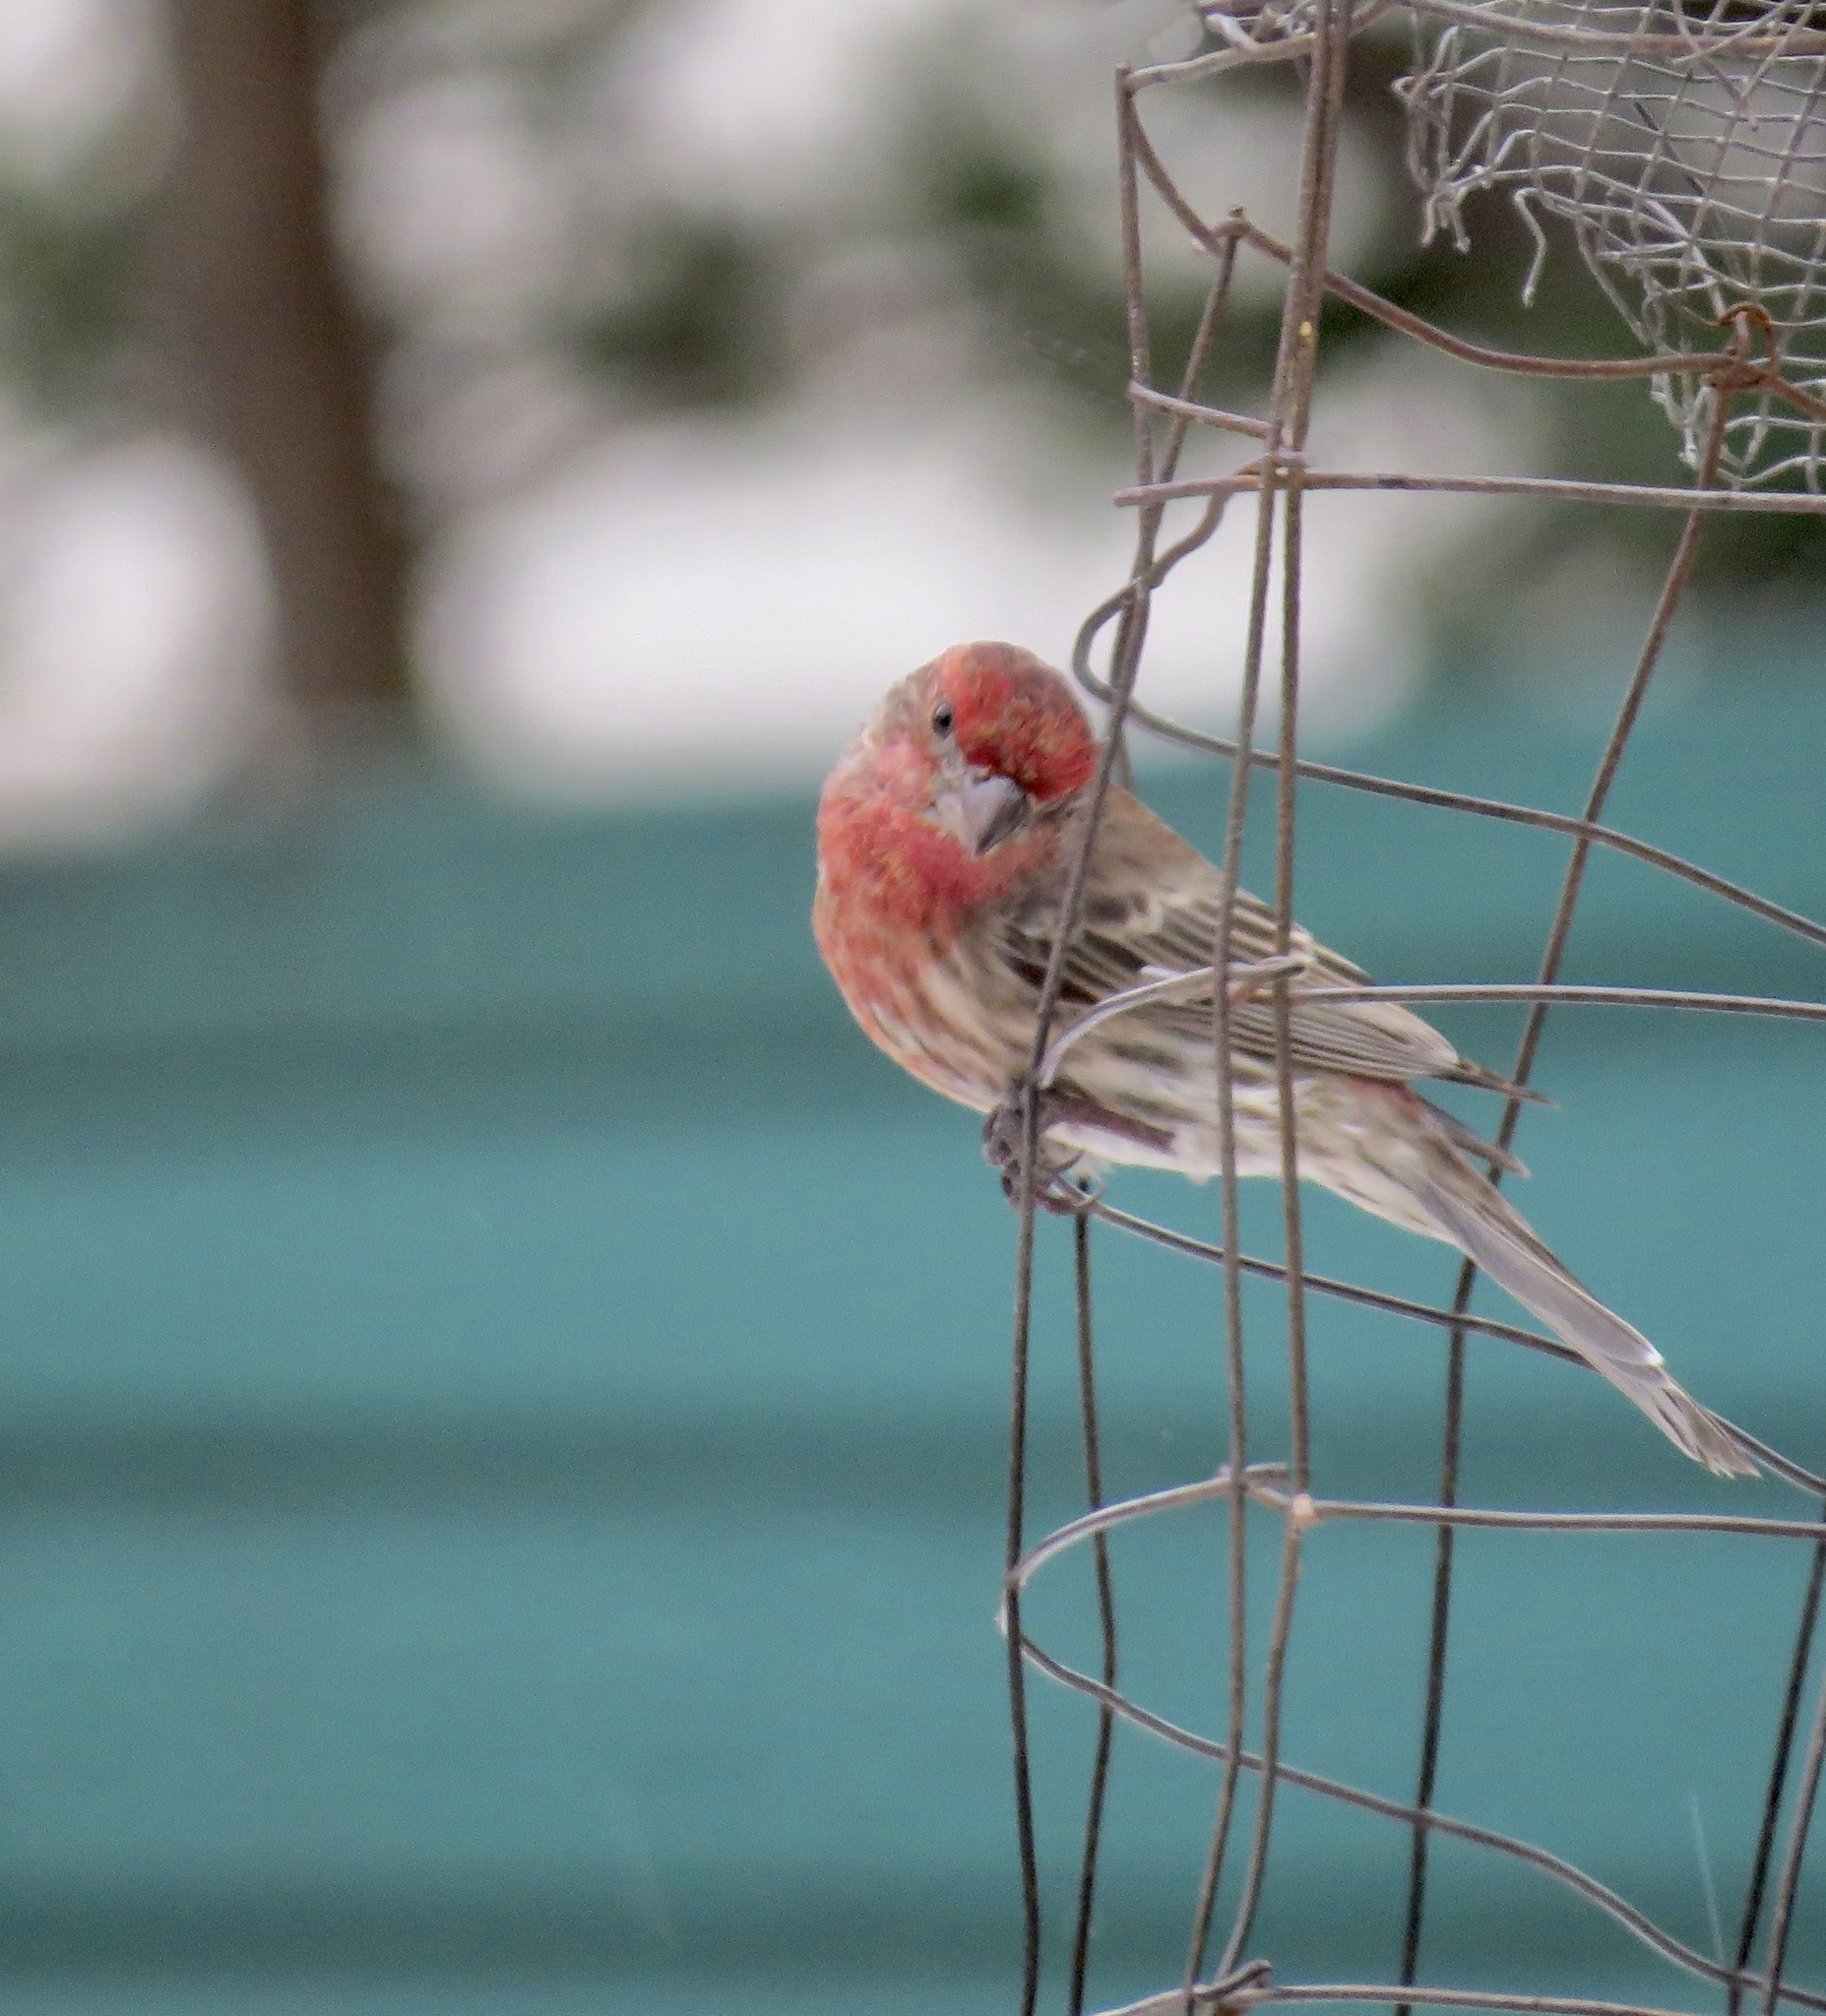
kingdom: Animalia
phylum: Chordata
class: Aves
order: Passeriformes
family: Fringillidae
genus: Haemorhous
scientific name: Haemorhous mexicanus
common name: House finch
